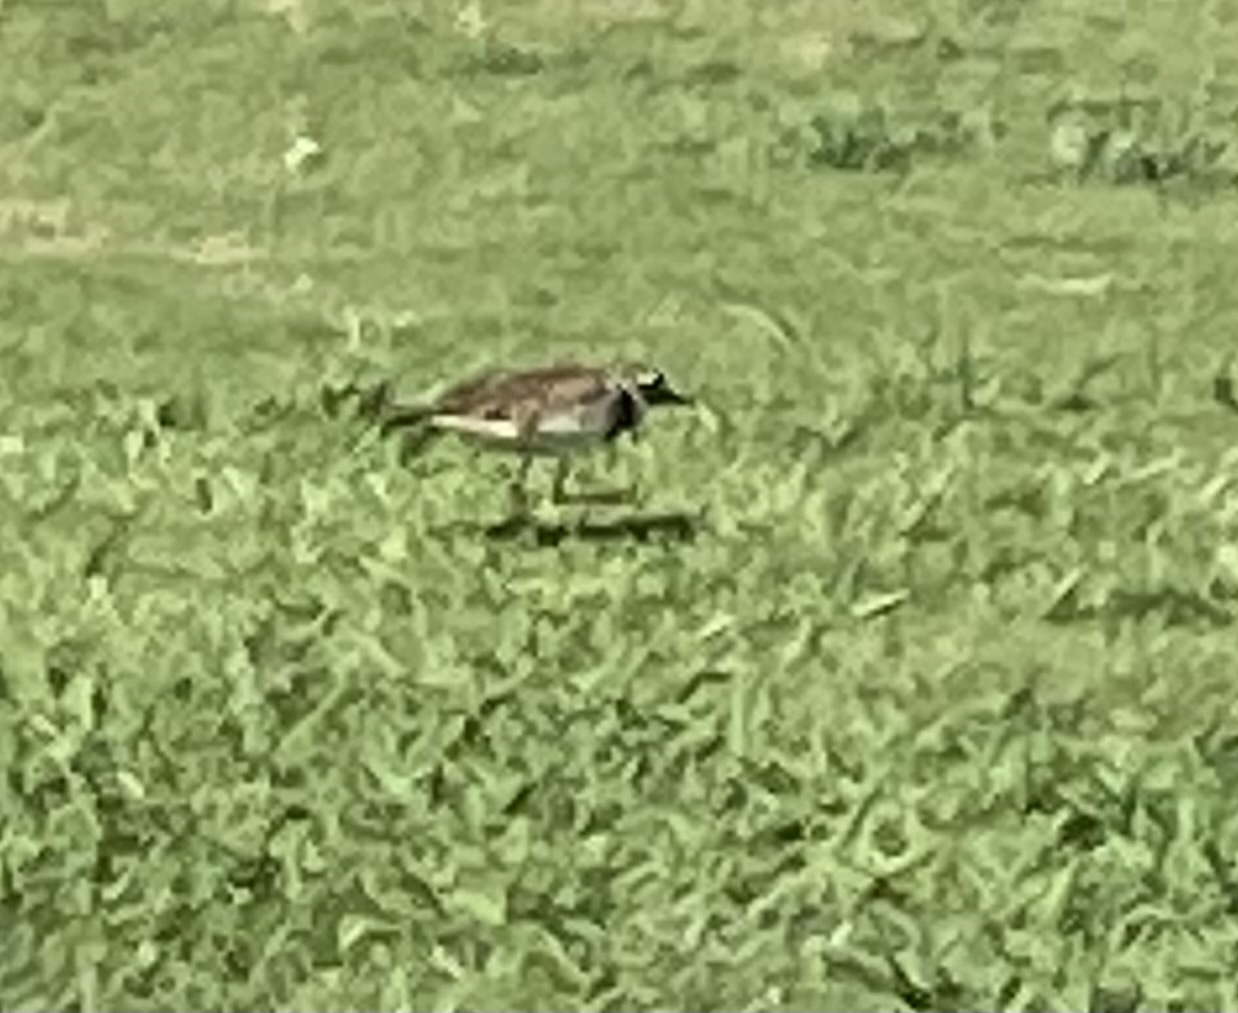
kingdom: Animalia
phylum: Chordata
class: Aves
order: Charadriiformes
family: Charadriidae
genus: Charadrius
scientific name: Charadrius vociferus
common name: Killdeer
